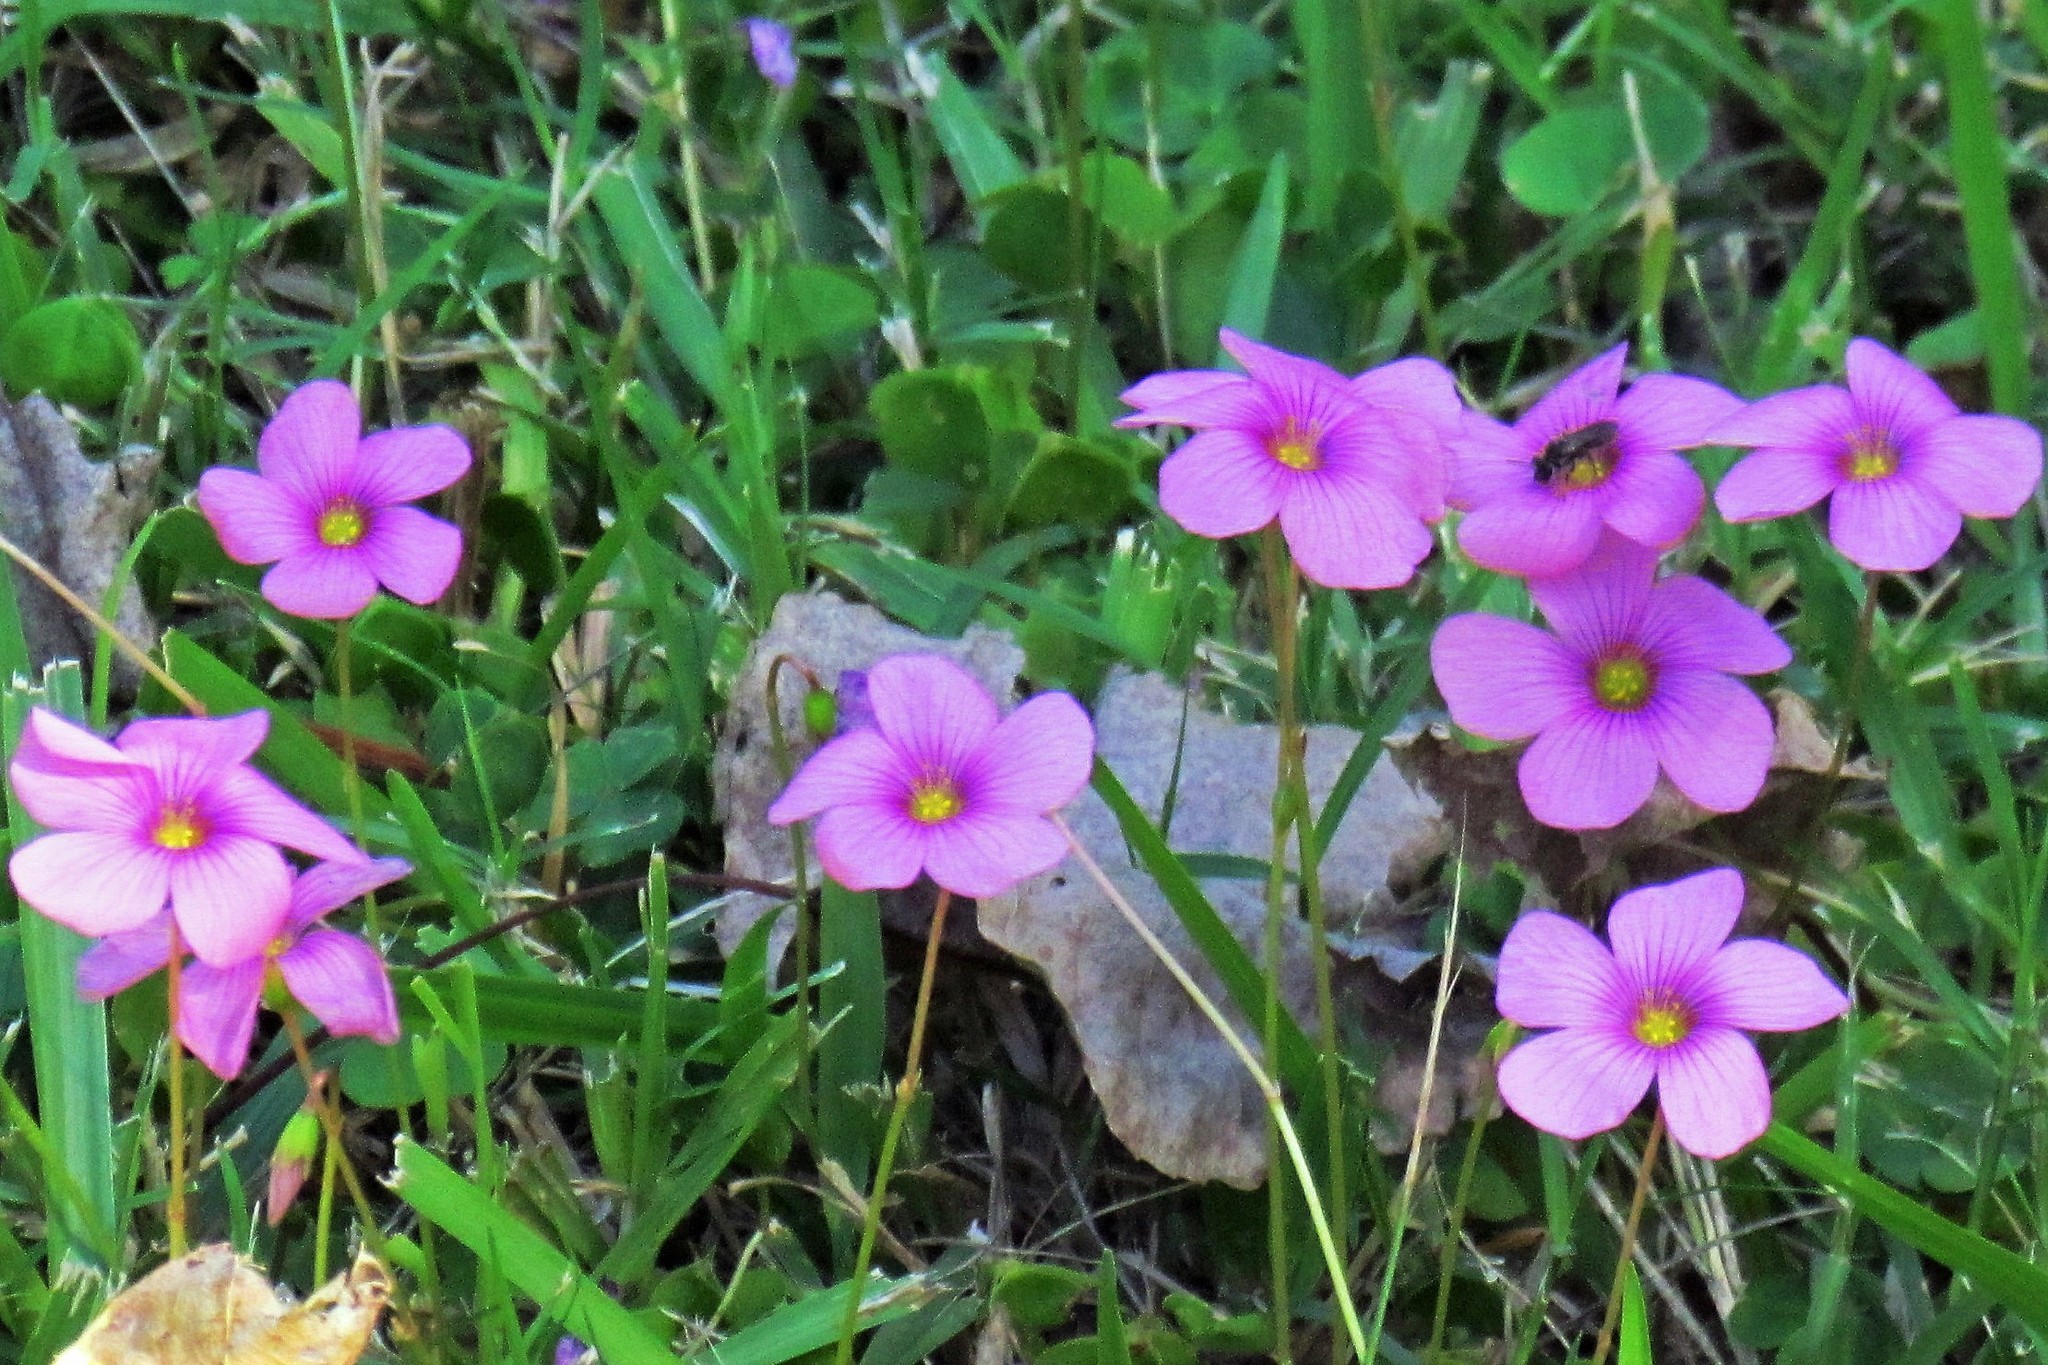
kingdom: Plantae
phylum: Tracheophyta
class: Magnoliopsida
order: Oxalidales
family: Oxalidaceae
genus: Oxalis
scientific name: Oxalis articulata
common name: Pink-sorrel
